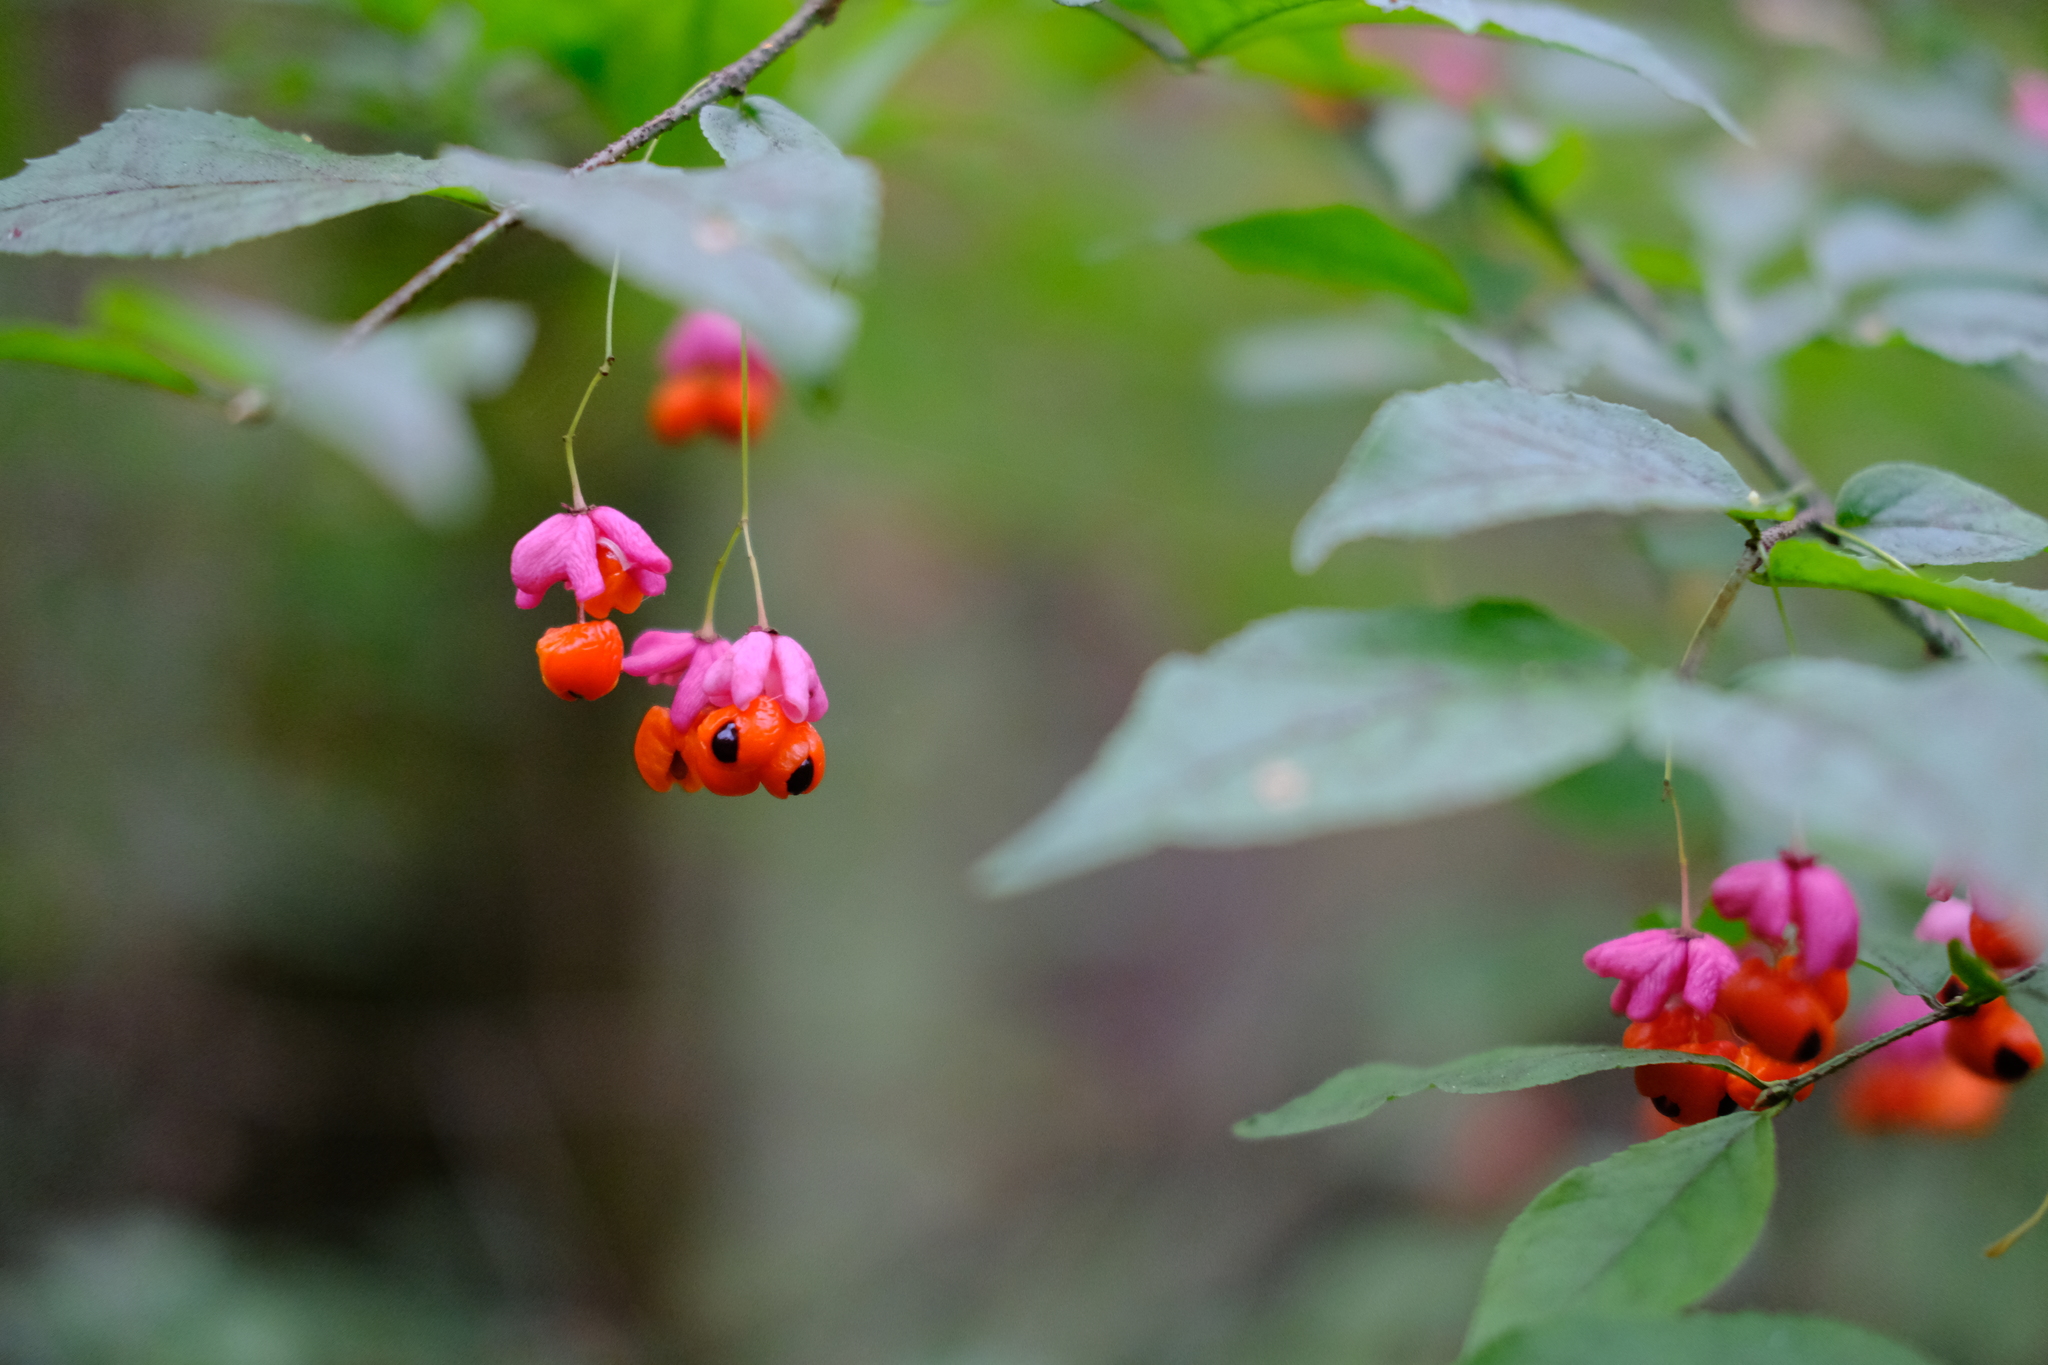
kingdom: Plantae
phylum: Tracheophyta
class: Magnoliopsida
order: Celastrales
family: Celastraceae
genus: Euonymus
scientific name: Euonymus verrucosus
